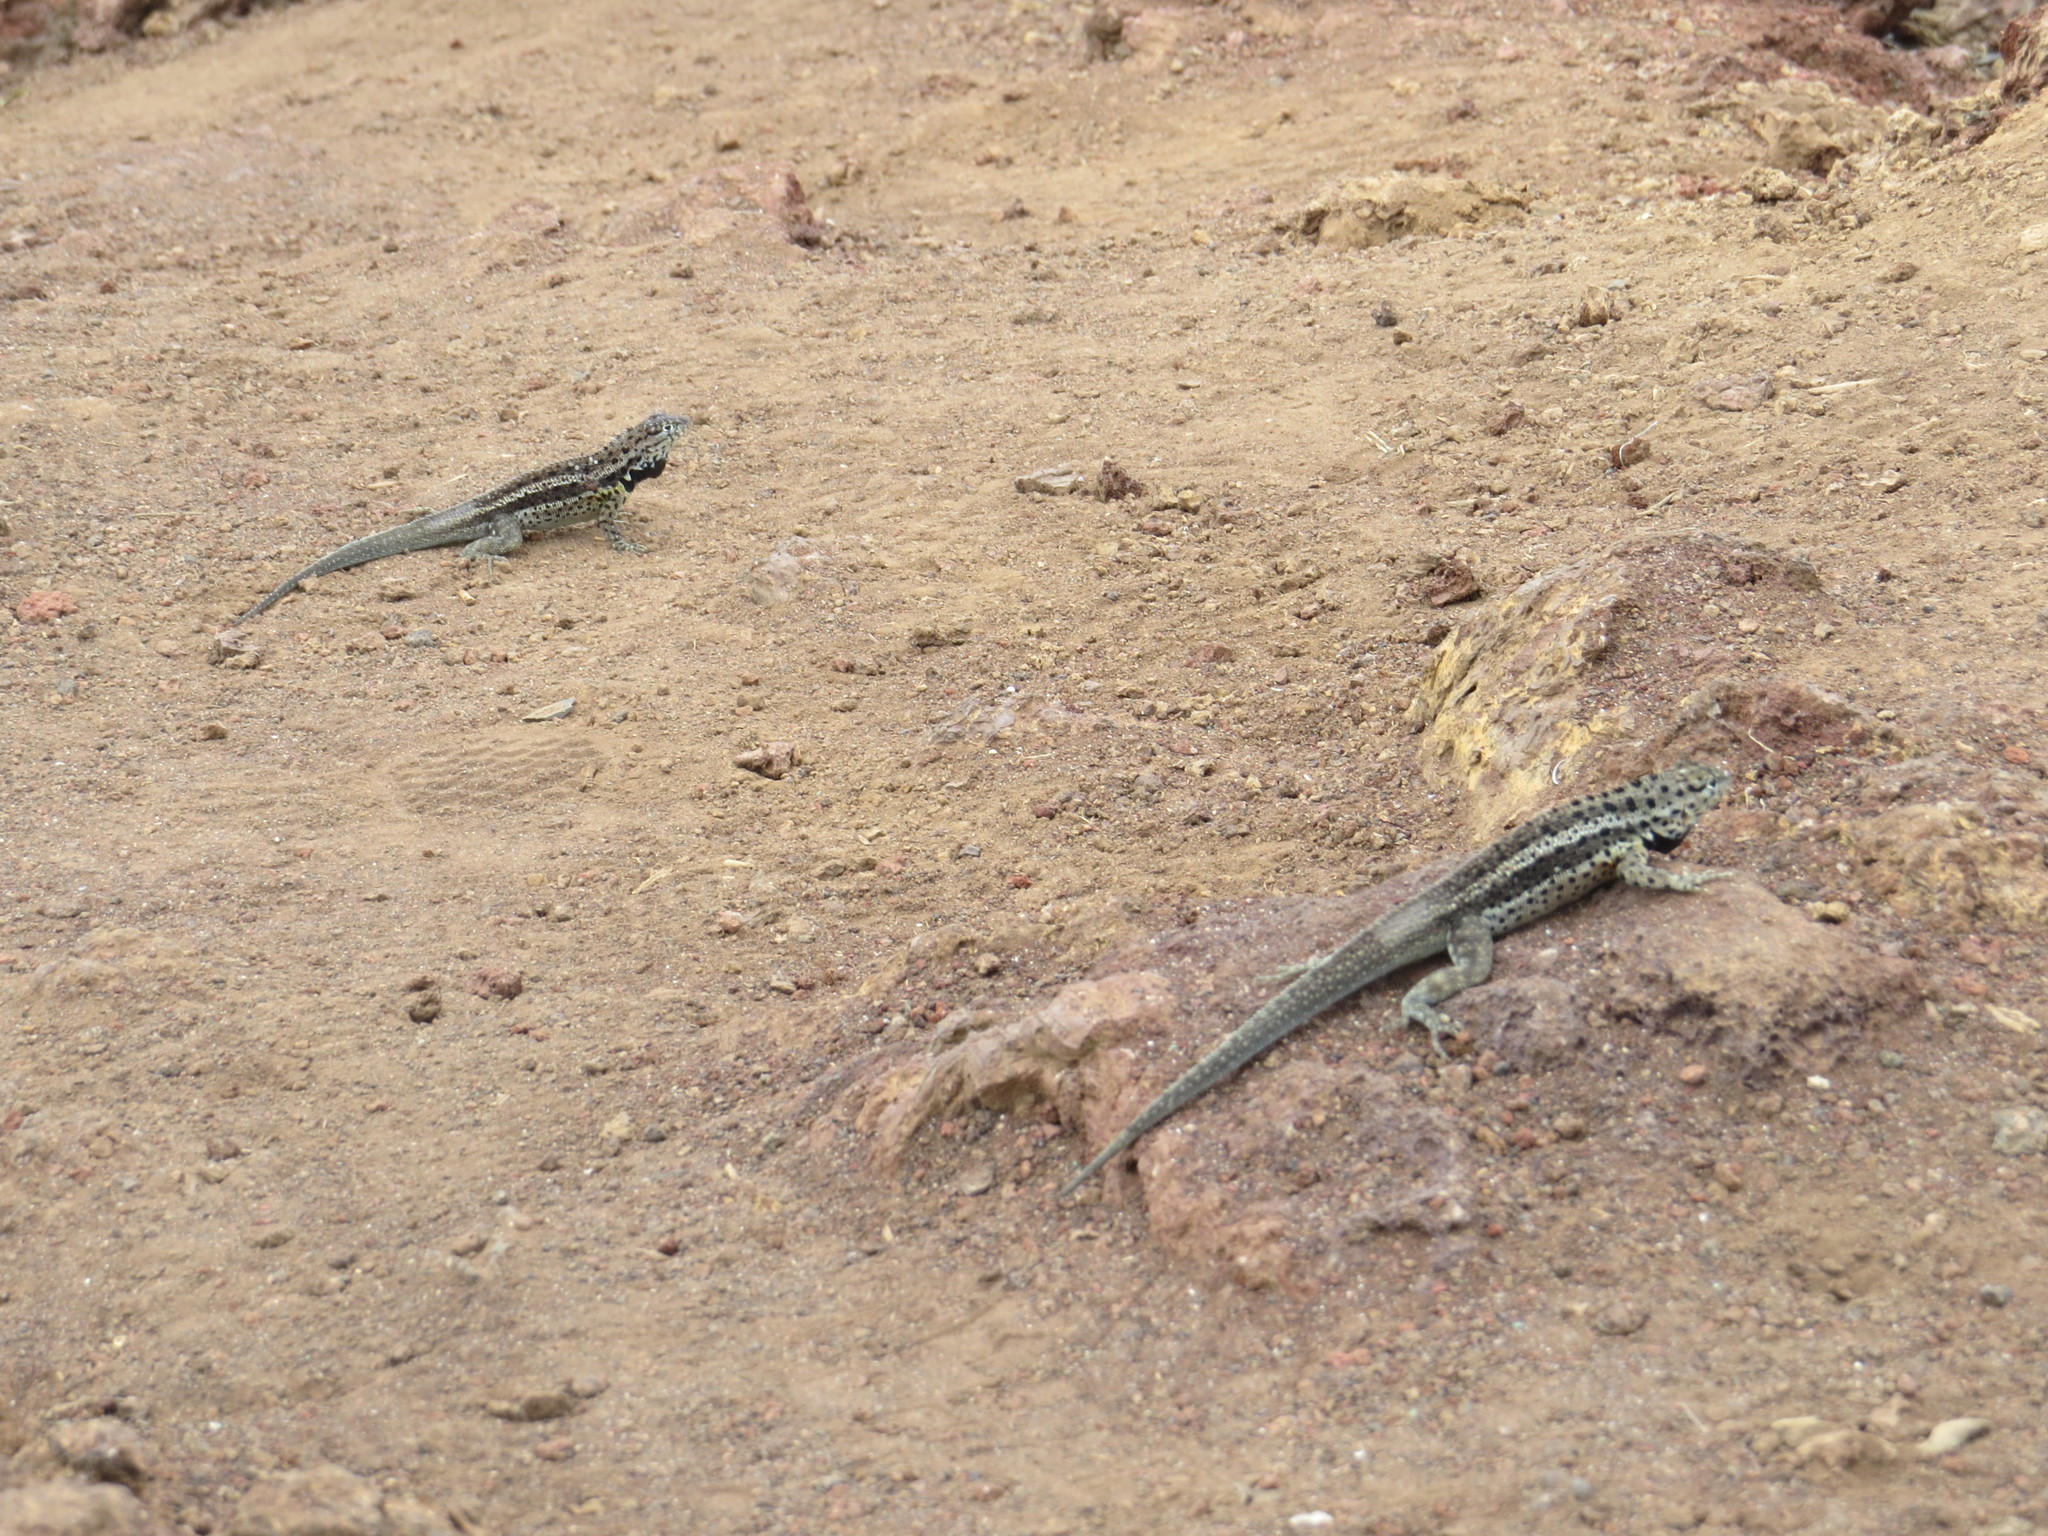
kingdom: Animalia
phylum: Chordata
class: Squamata
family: Tropiduridae
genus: Microlophus
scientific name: Microlophus albemarlensis
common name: Galapagos lava lizard
